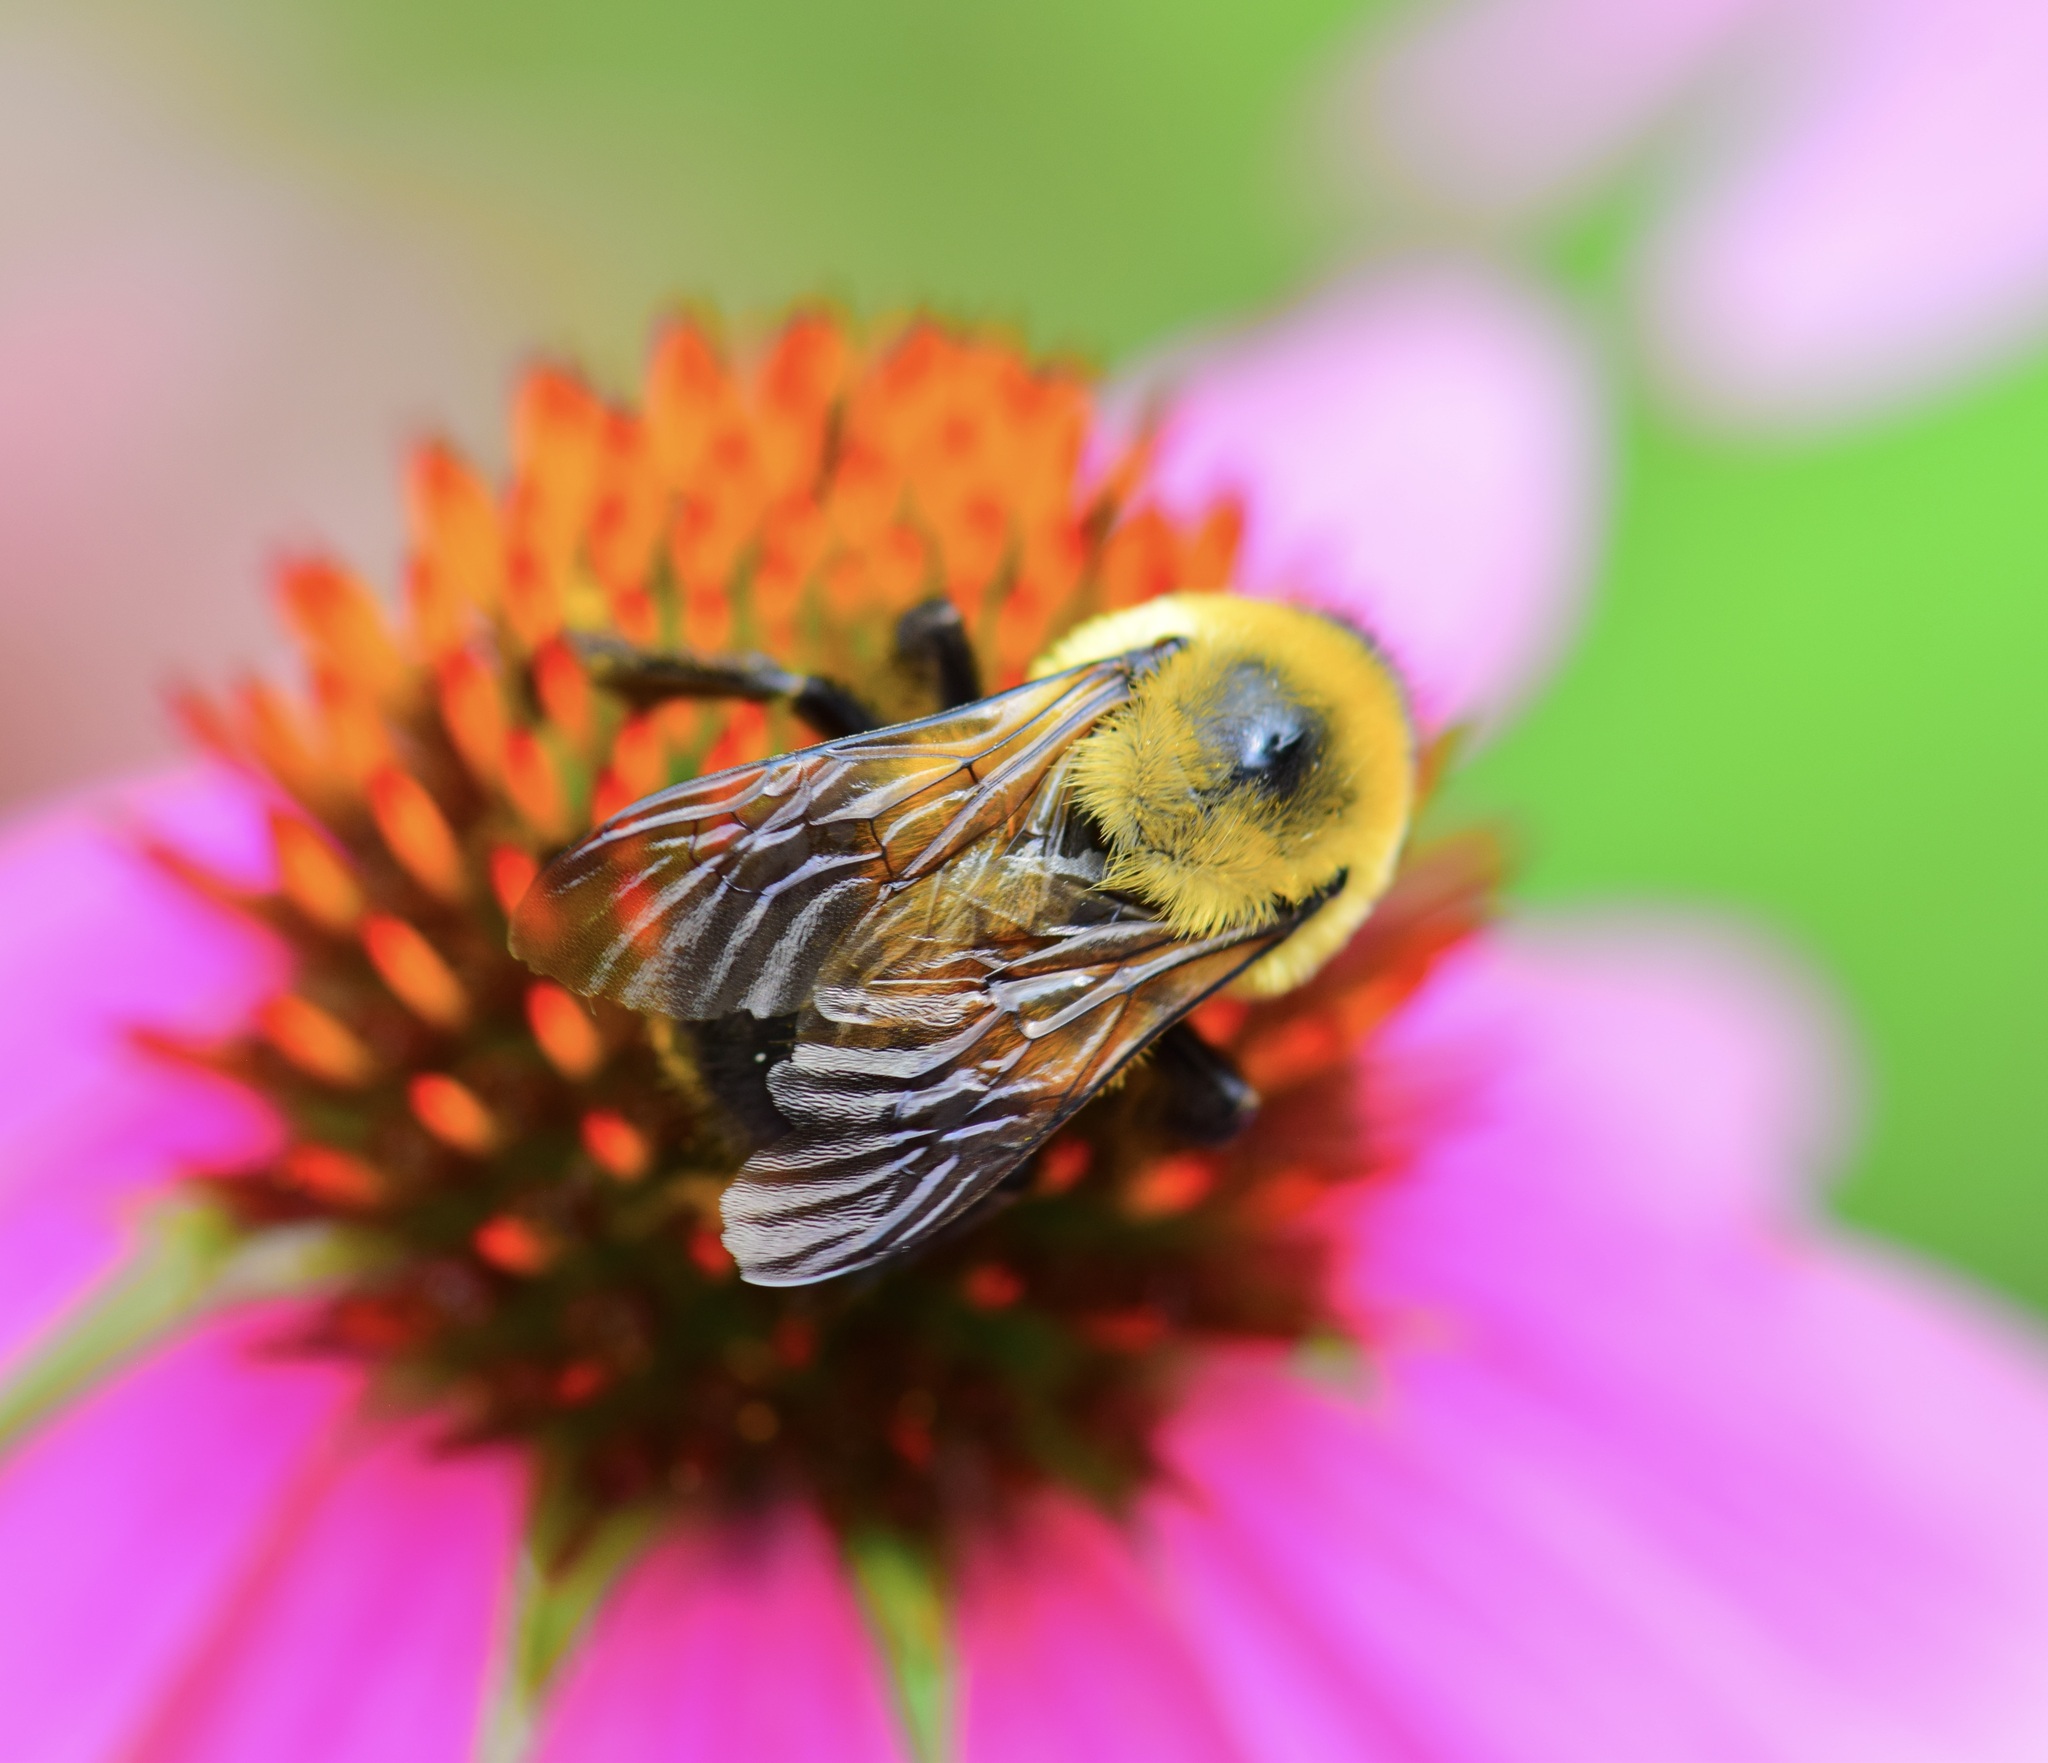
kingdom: Animalia
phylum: Arthropoda
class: Insecta
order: Hymenoptera
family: Apidae
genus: Bombus
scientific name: Bombus griseocollis
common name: Brown-belted bumble bee
